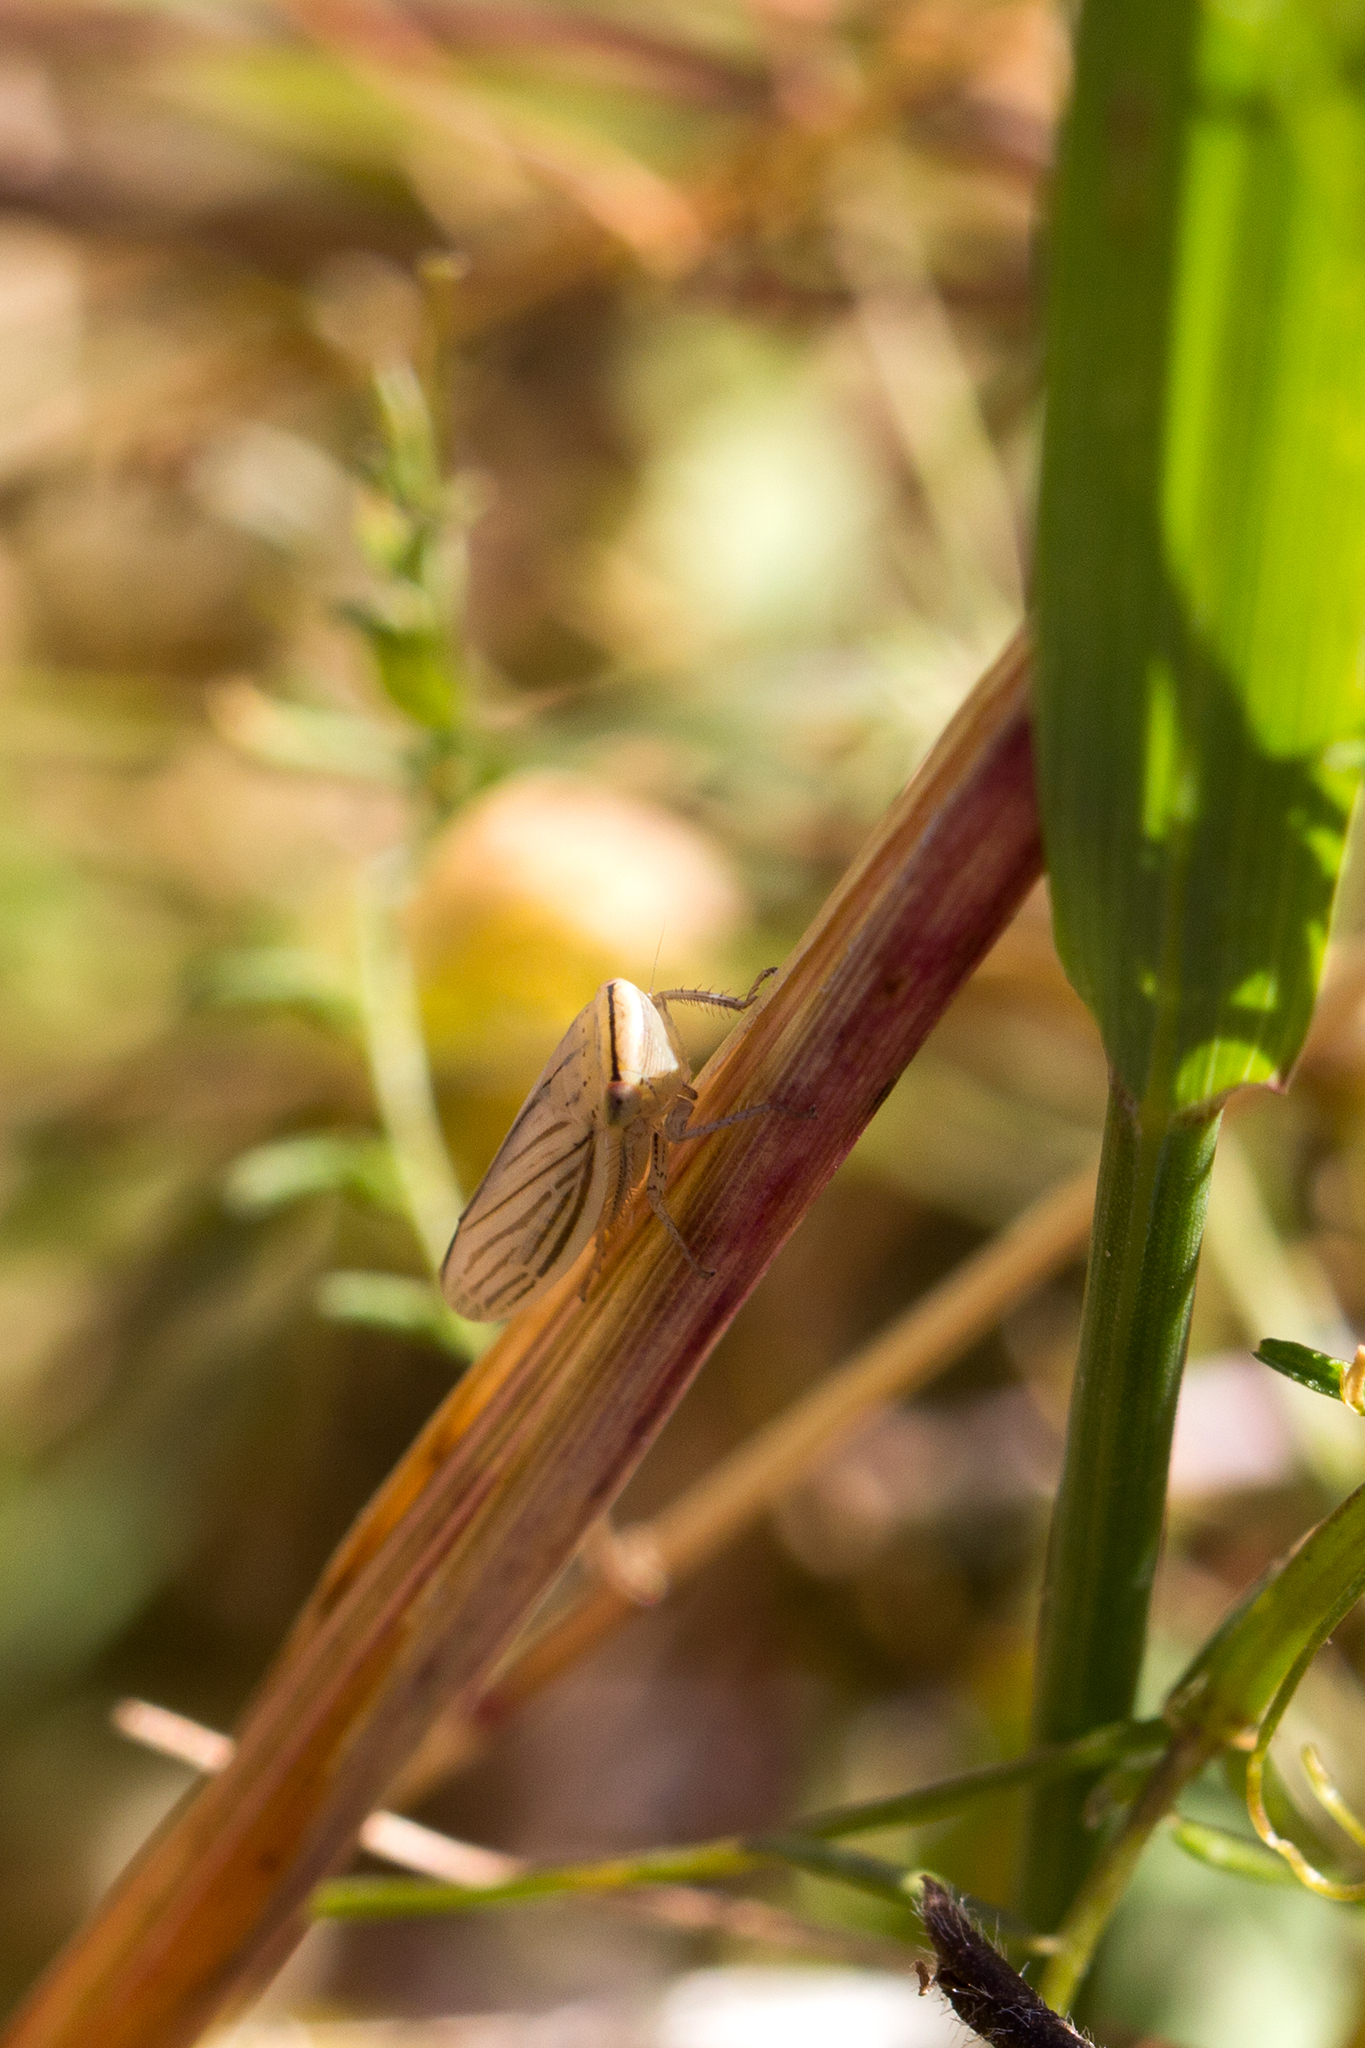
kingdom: Animalia
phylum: Arthropoda
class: Insecta
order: Hemiptera
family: Cicadellidae
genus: Athysanus
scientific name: Athysanus argentarius
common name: Silver leafhopper
